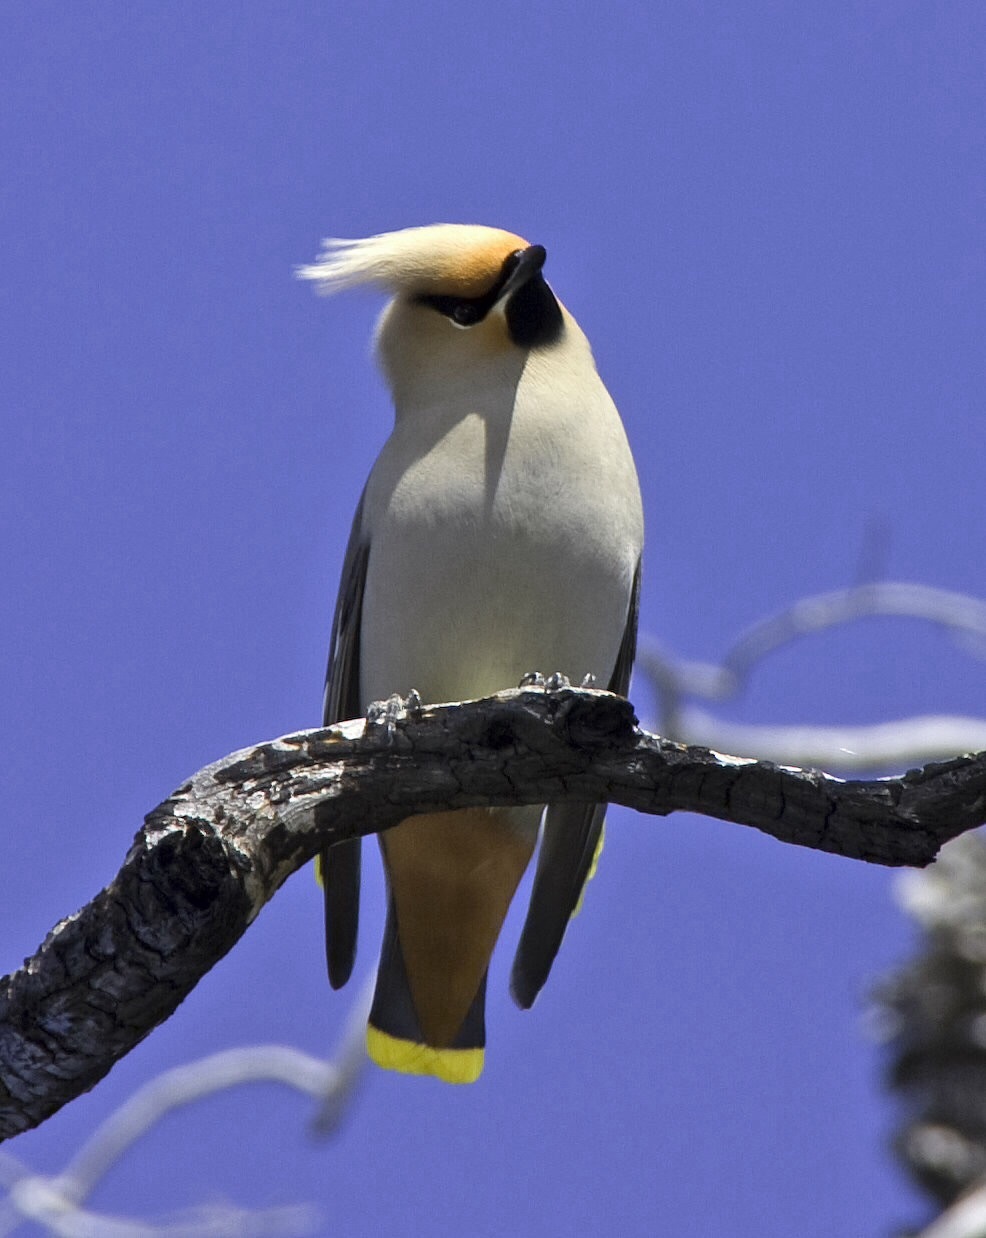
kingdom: Animalia
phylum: Chordata
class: Aves
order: Passeriformes
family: Bombycillidae
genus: Bombycilla
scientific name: Bombycilla garrulus
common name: Bohemian waxwing
